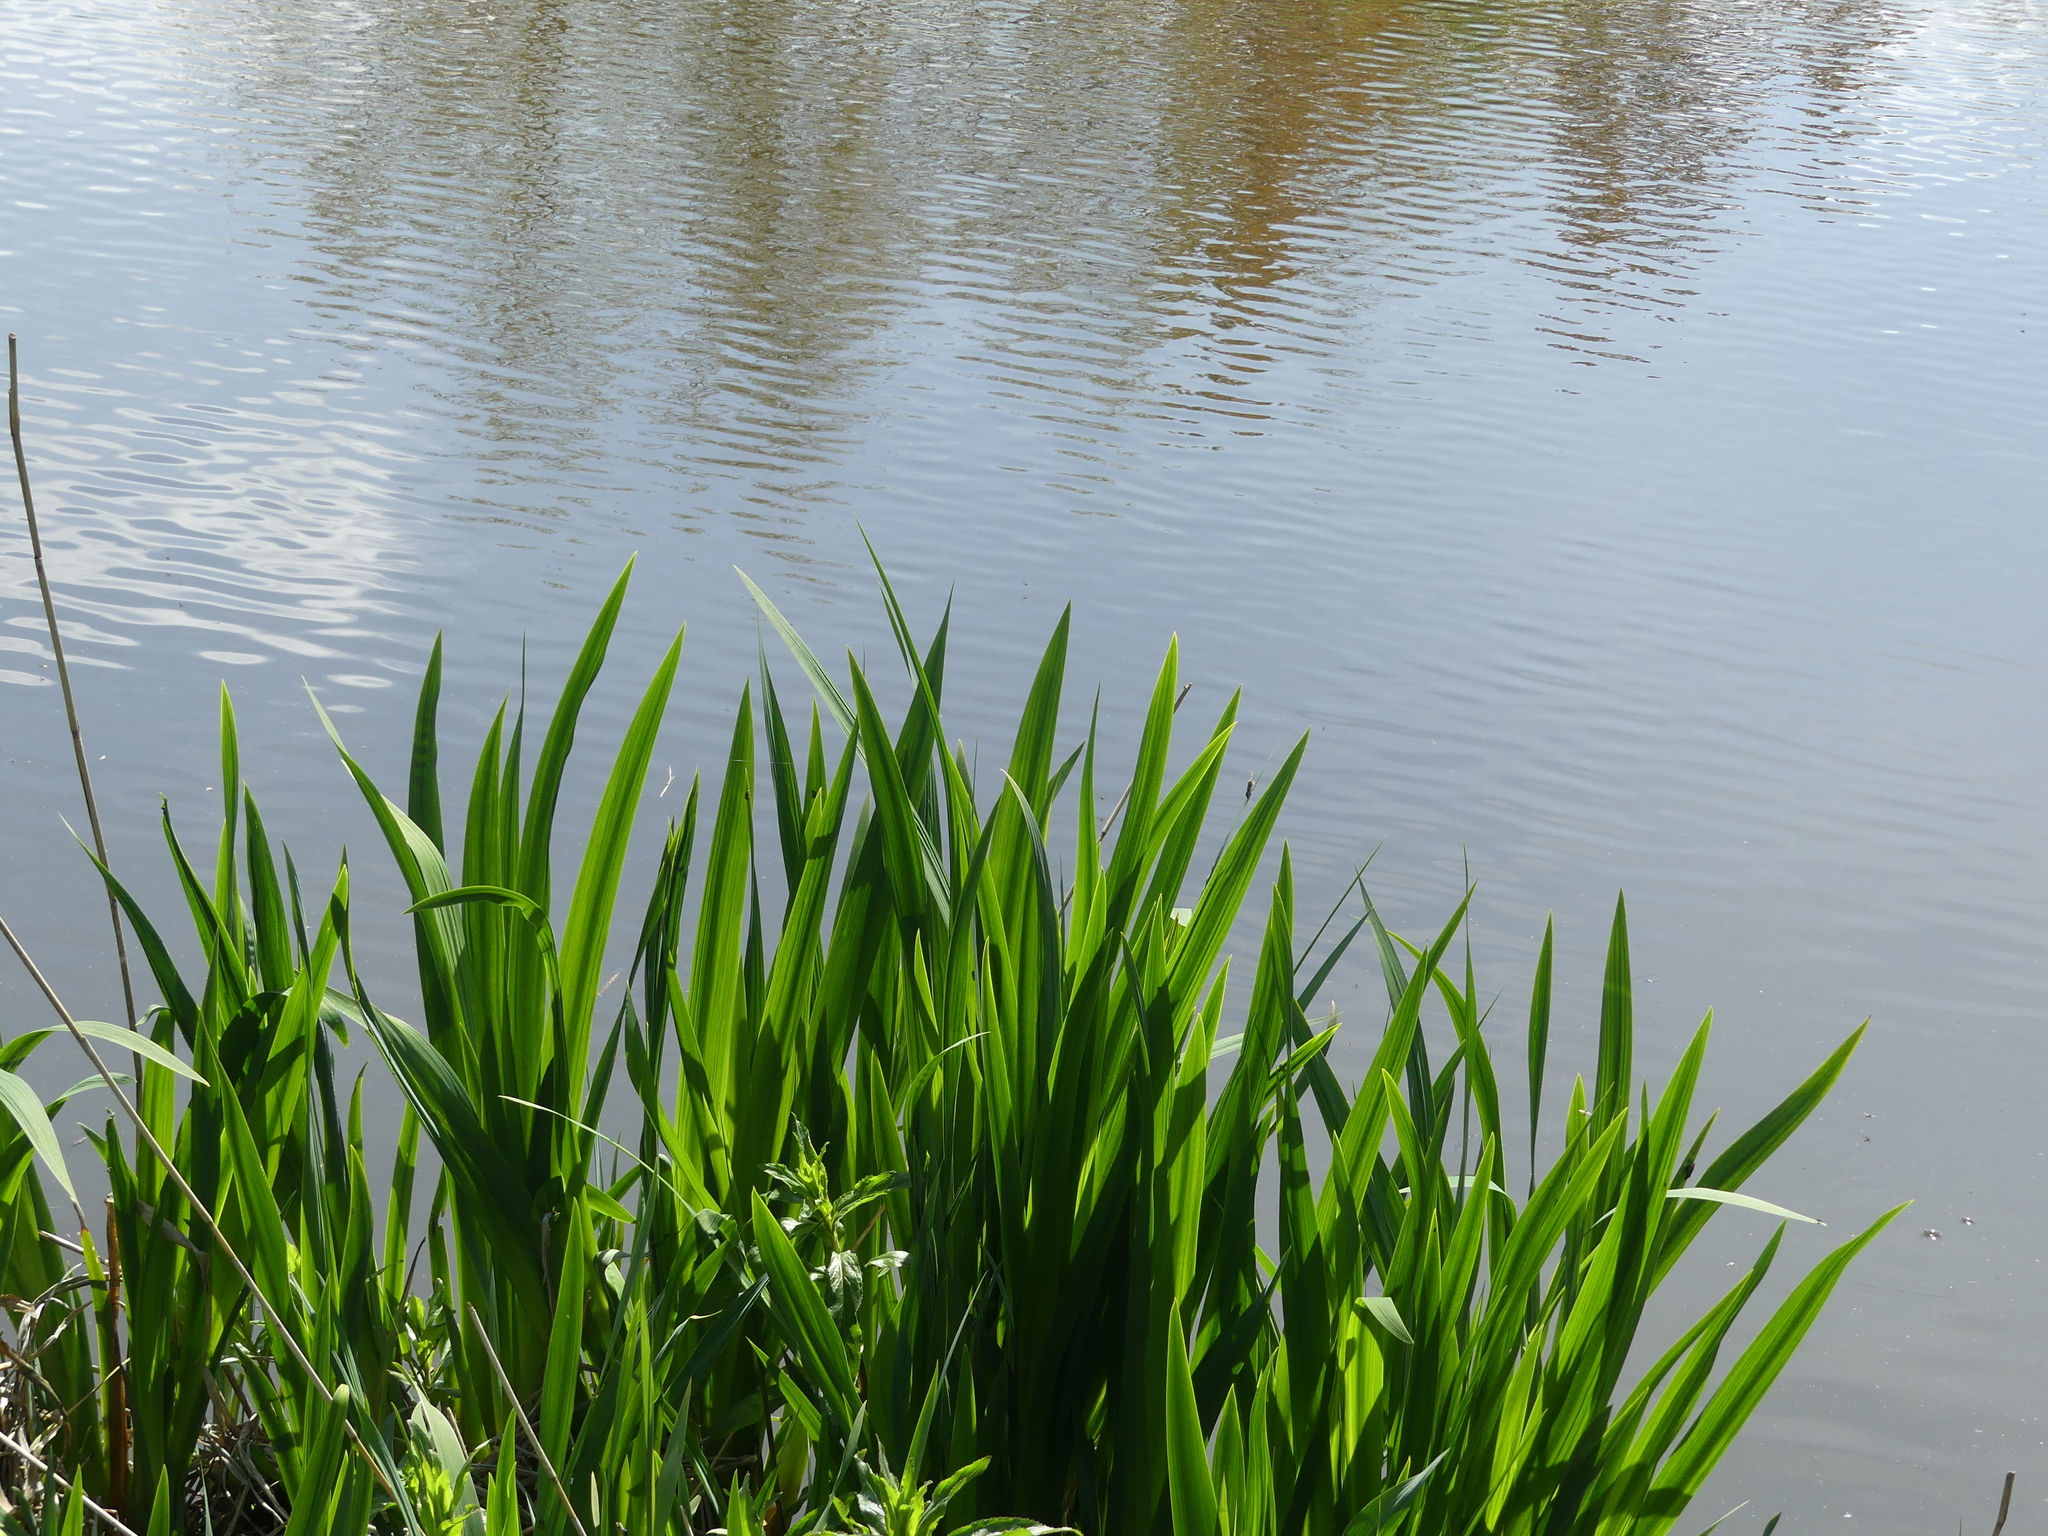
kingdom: Plantae
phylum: Tracheophyta
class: Liliopsida
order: Asparagales
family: Iridaceae
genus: Iris
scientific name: Iris pseudacorus
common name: Yellow flag
